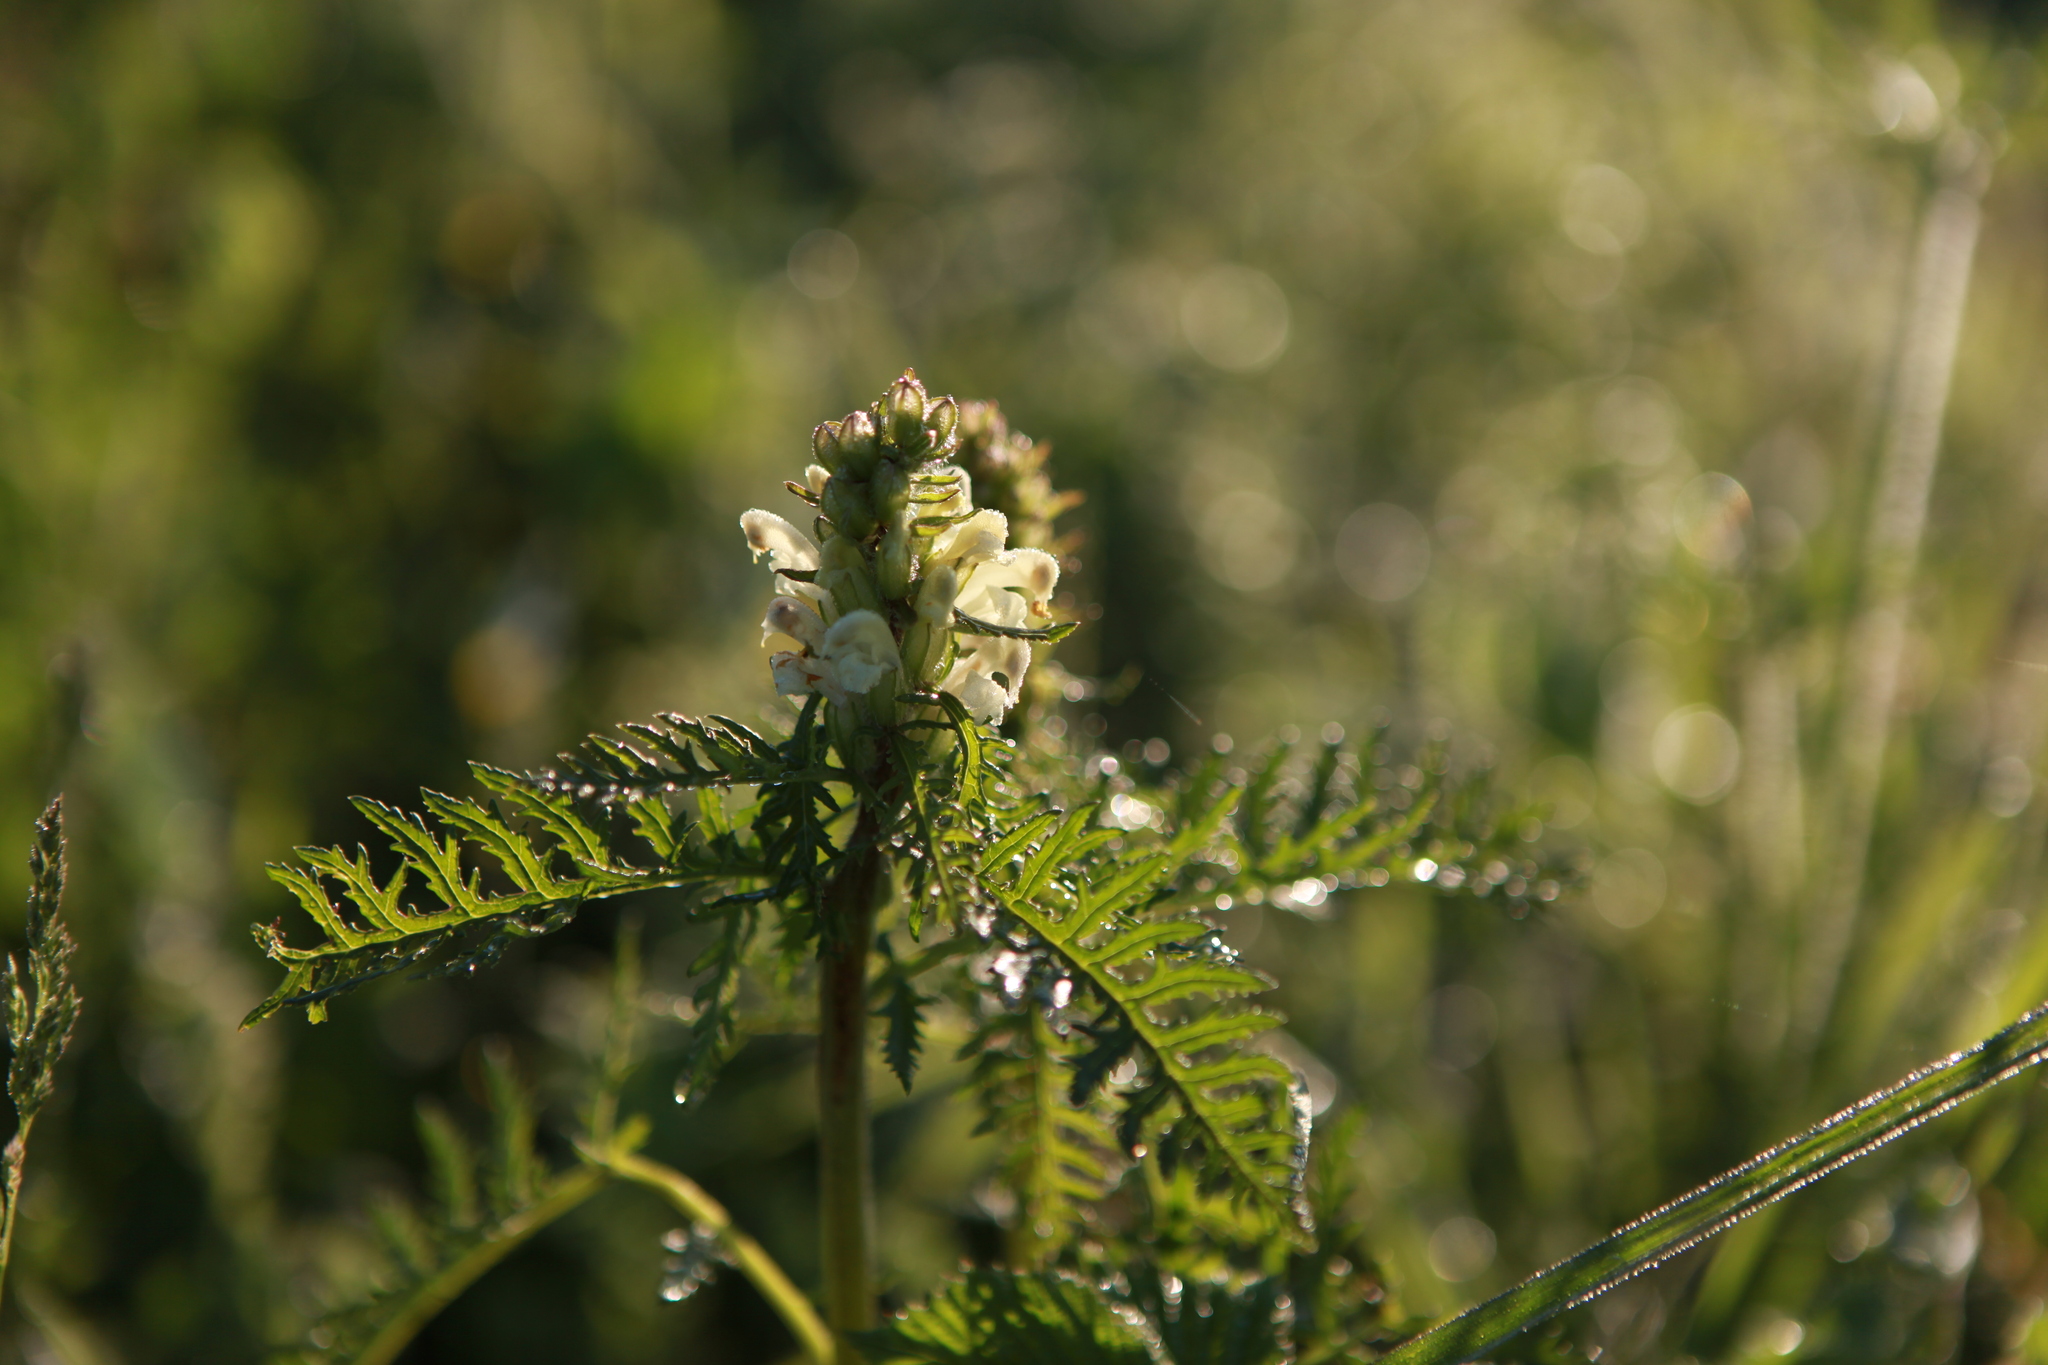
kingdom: Plantae
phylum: Tracheophyta
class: Magnoliopsida
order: Lamiales
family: Orobanchaceae
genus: Pedicularis
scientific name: Pedicularis sibirica
